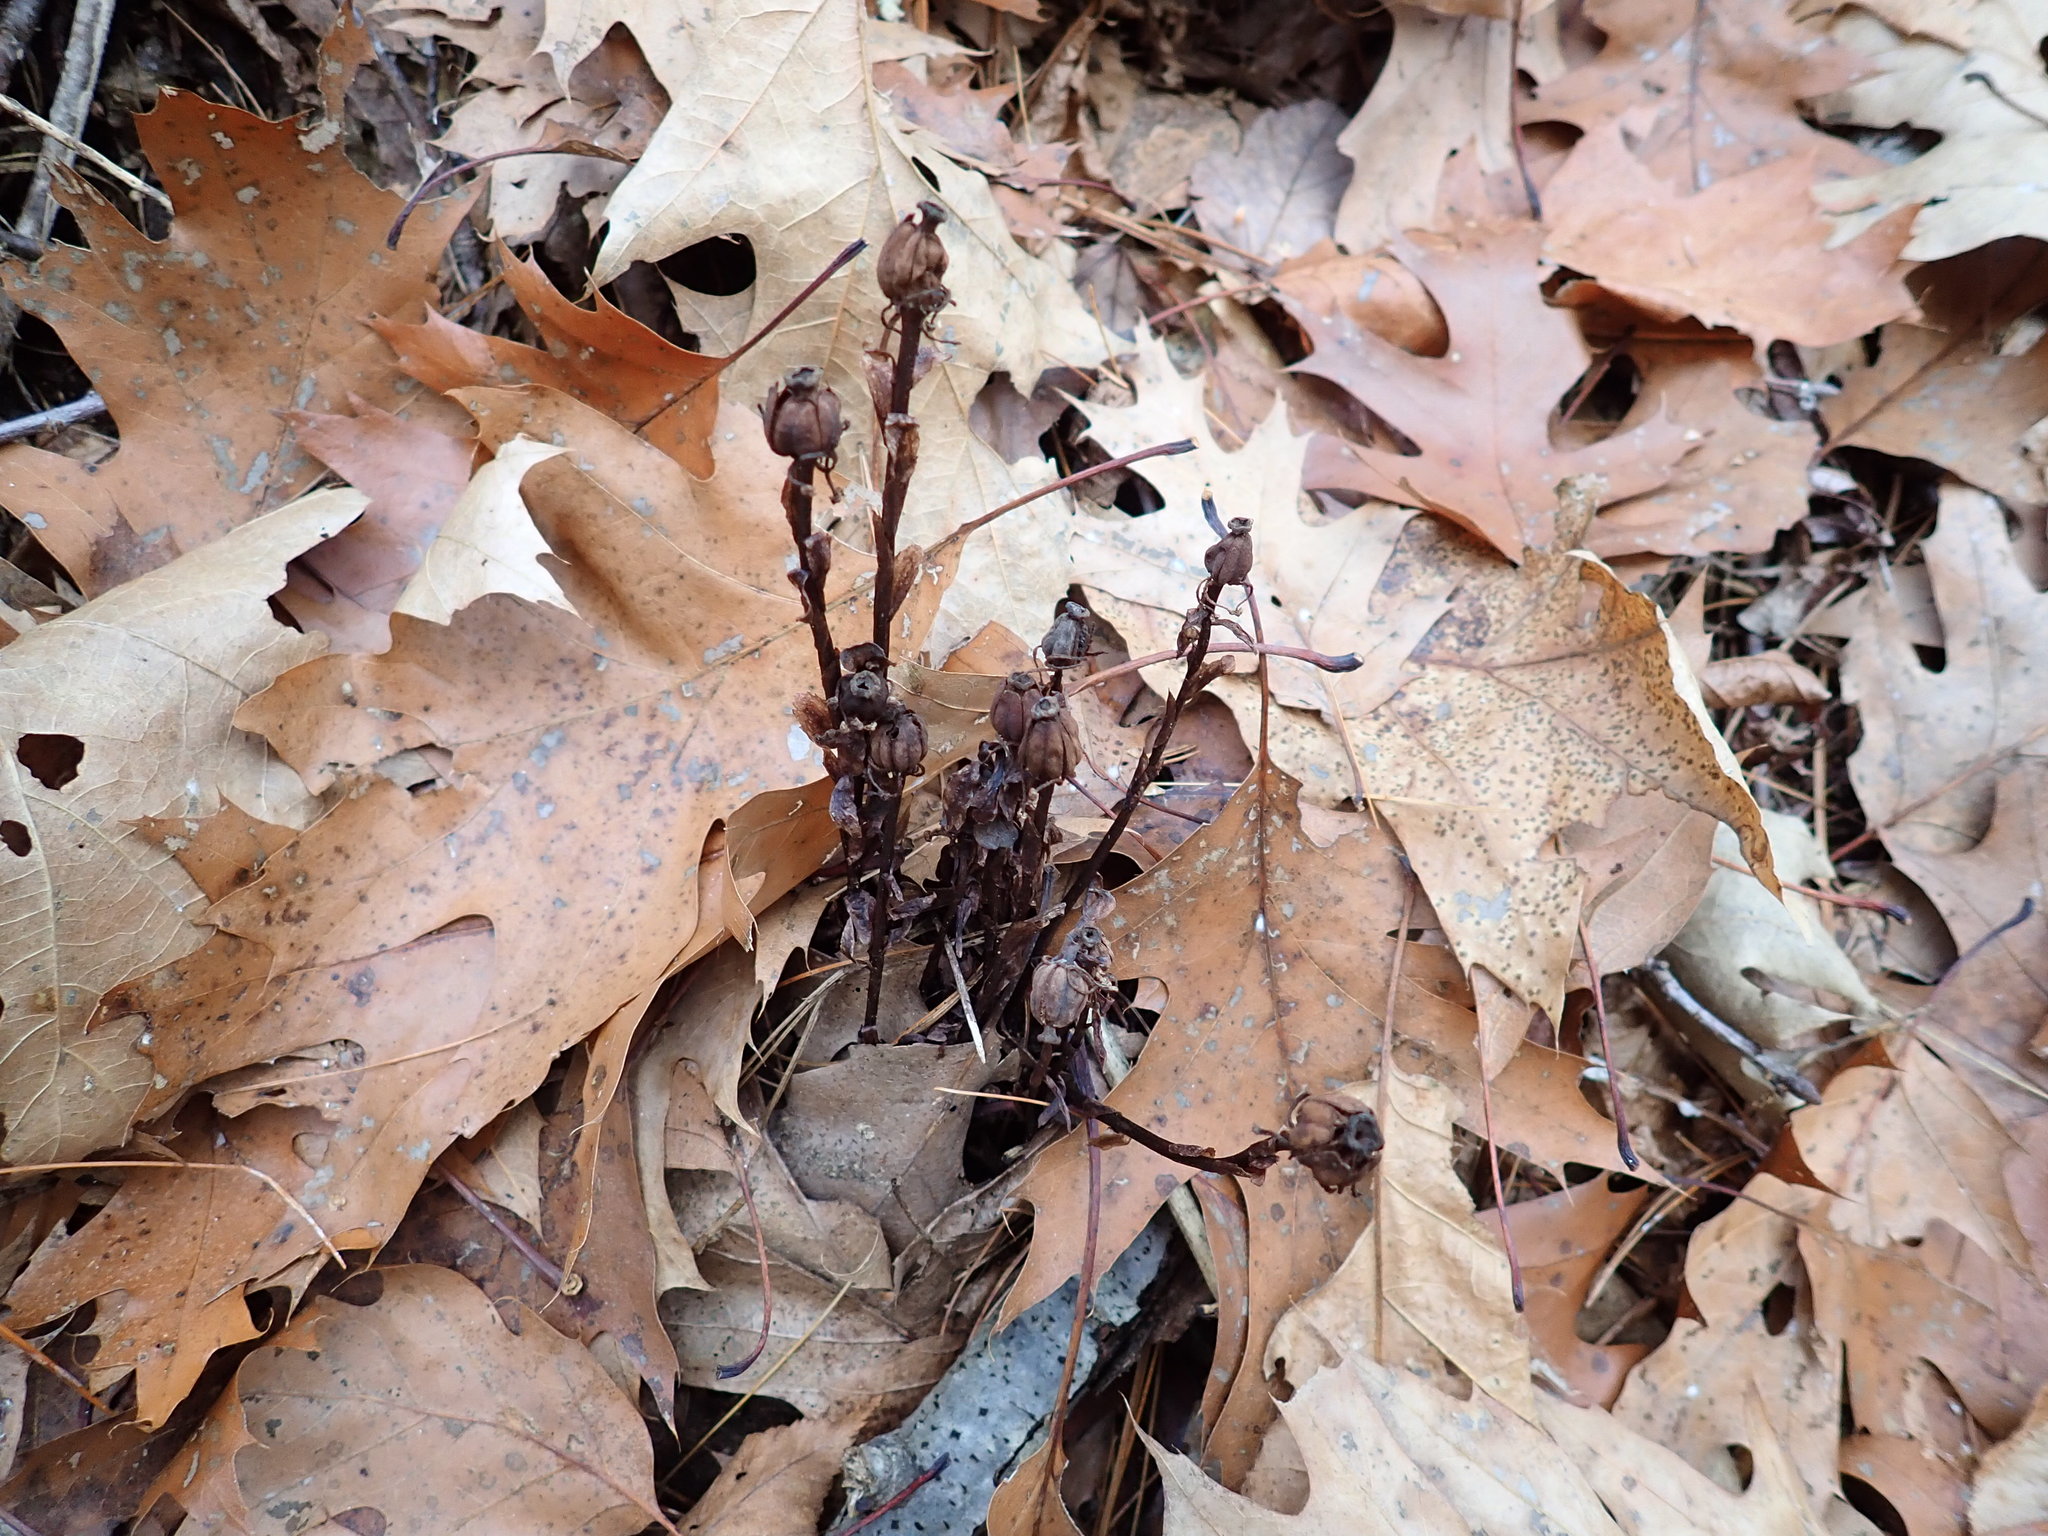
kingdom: Plantae
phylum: Tracheophyta
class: Magnoliopsida
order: Ericales
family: Ericaceae
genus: Monotropa
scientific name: Monotropa uniflora
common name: Convulsion root
